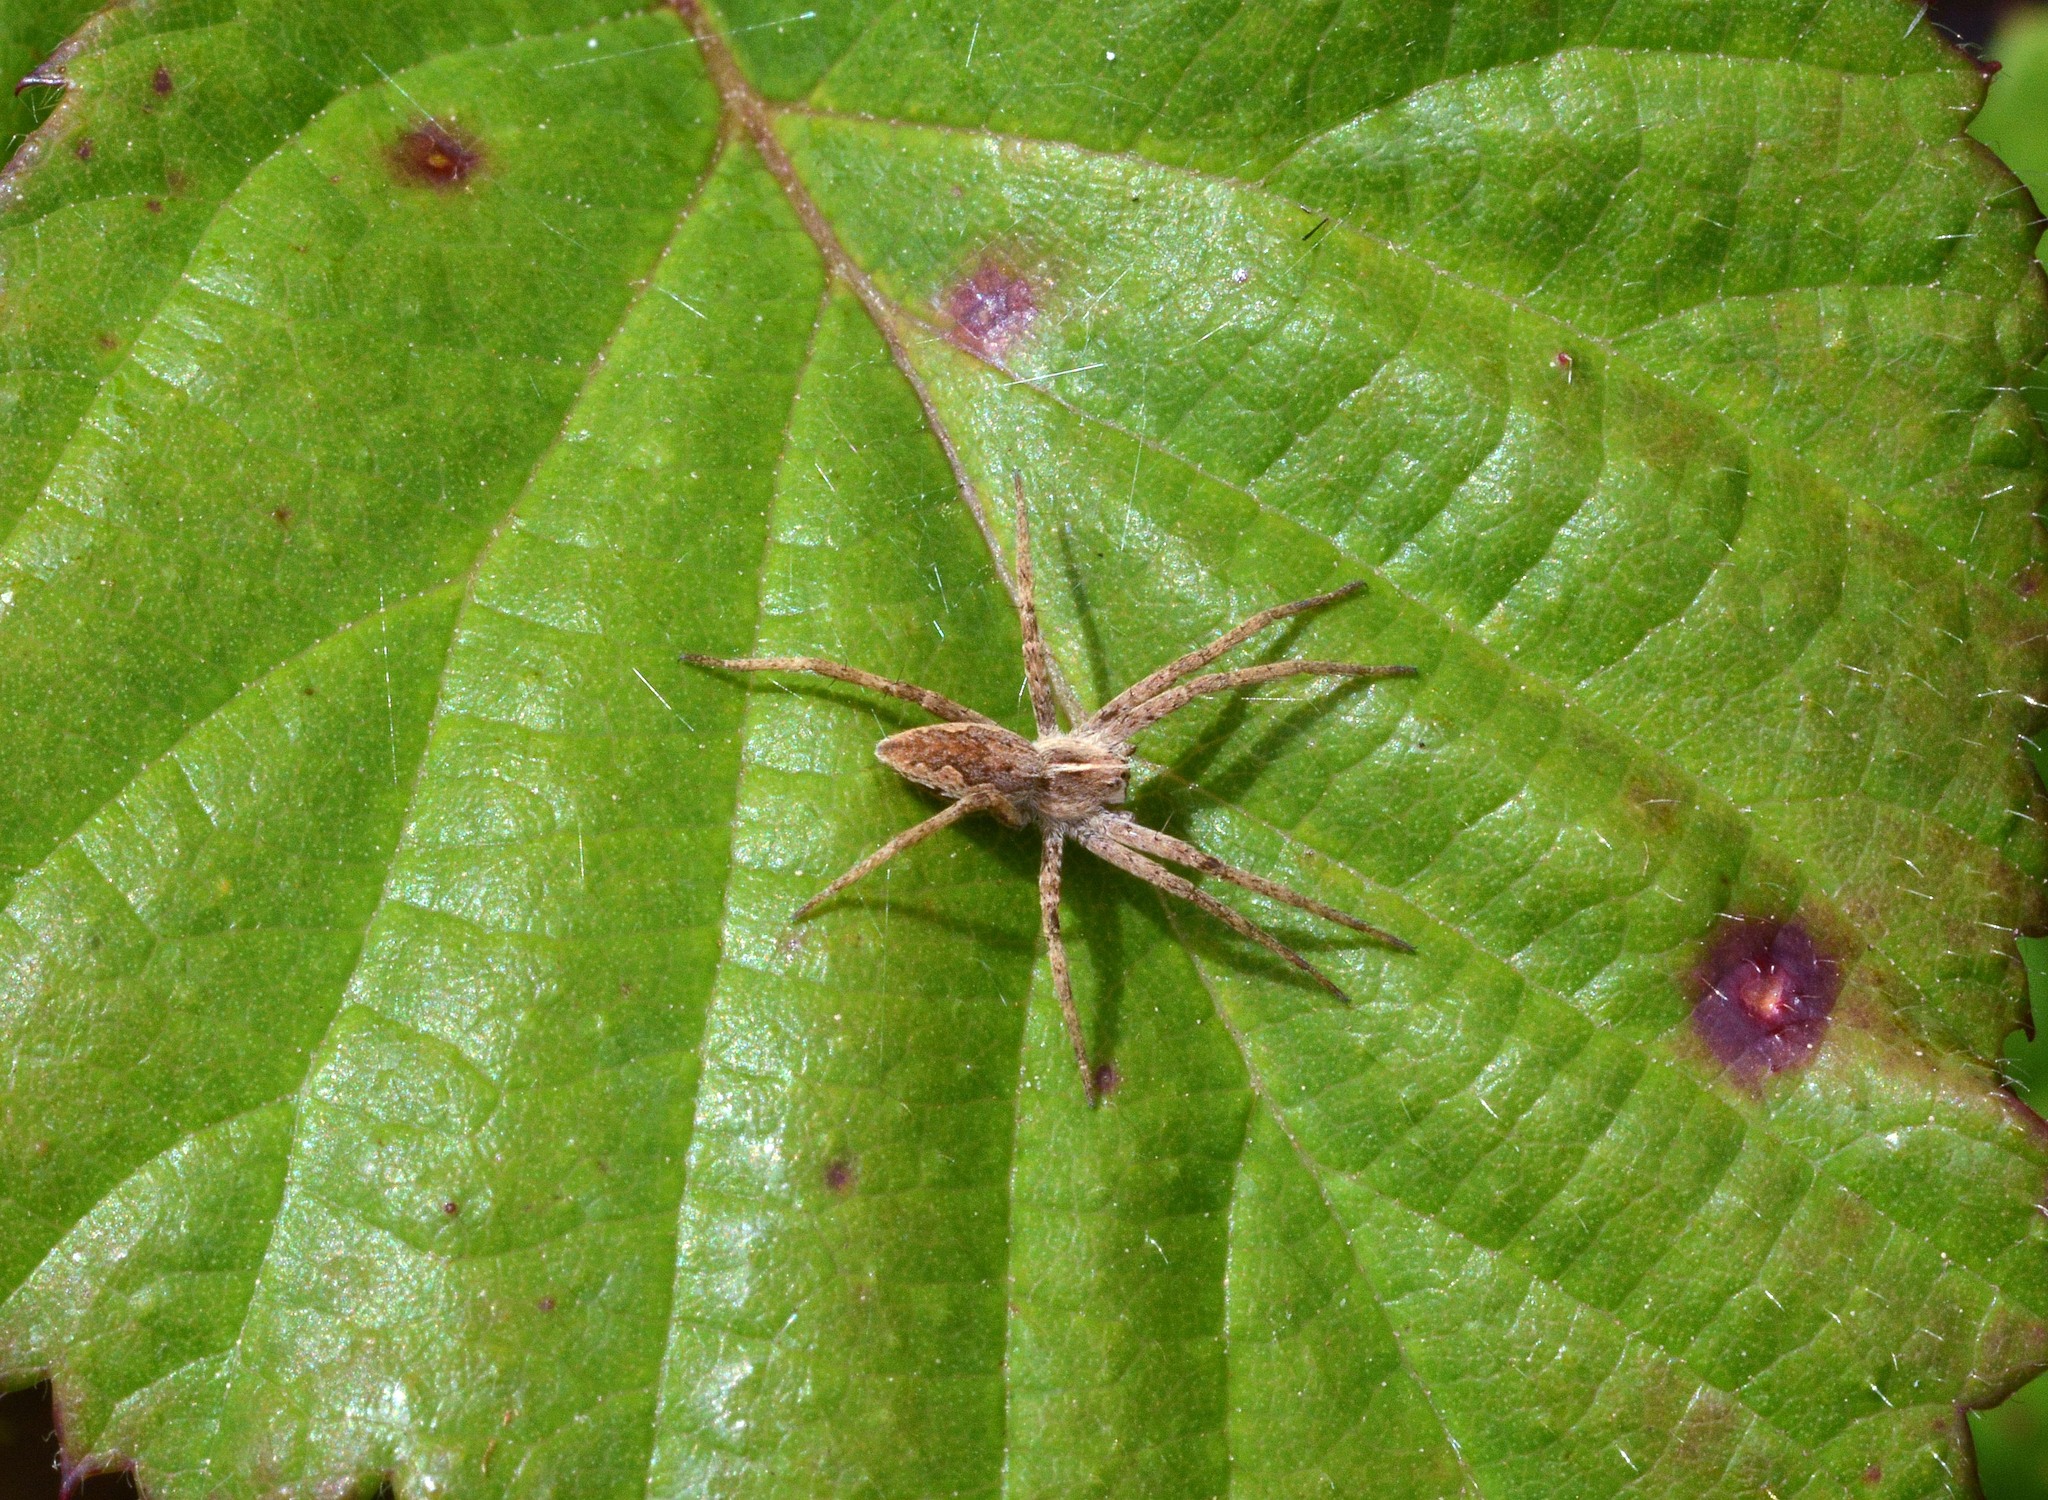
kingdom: Animalia
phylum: Arthropoda
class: Arachnida
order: Araneae
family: Pisauridae
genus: Pisaura
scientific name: Pisaura mirabilis
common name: Tent spider
